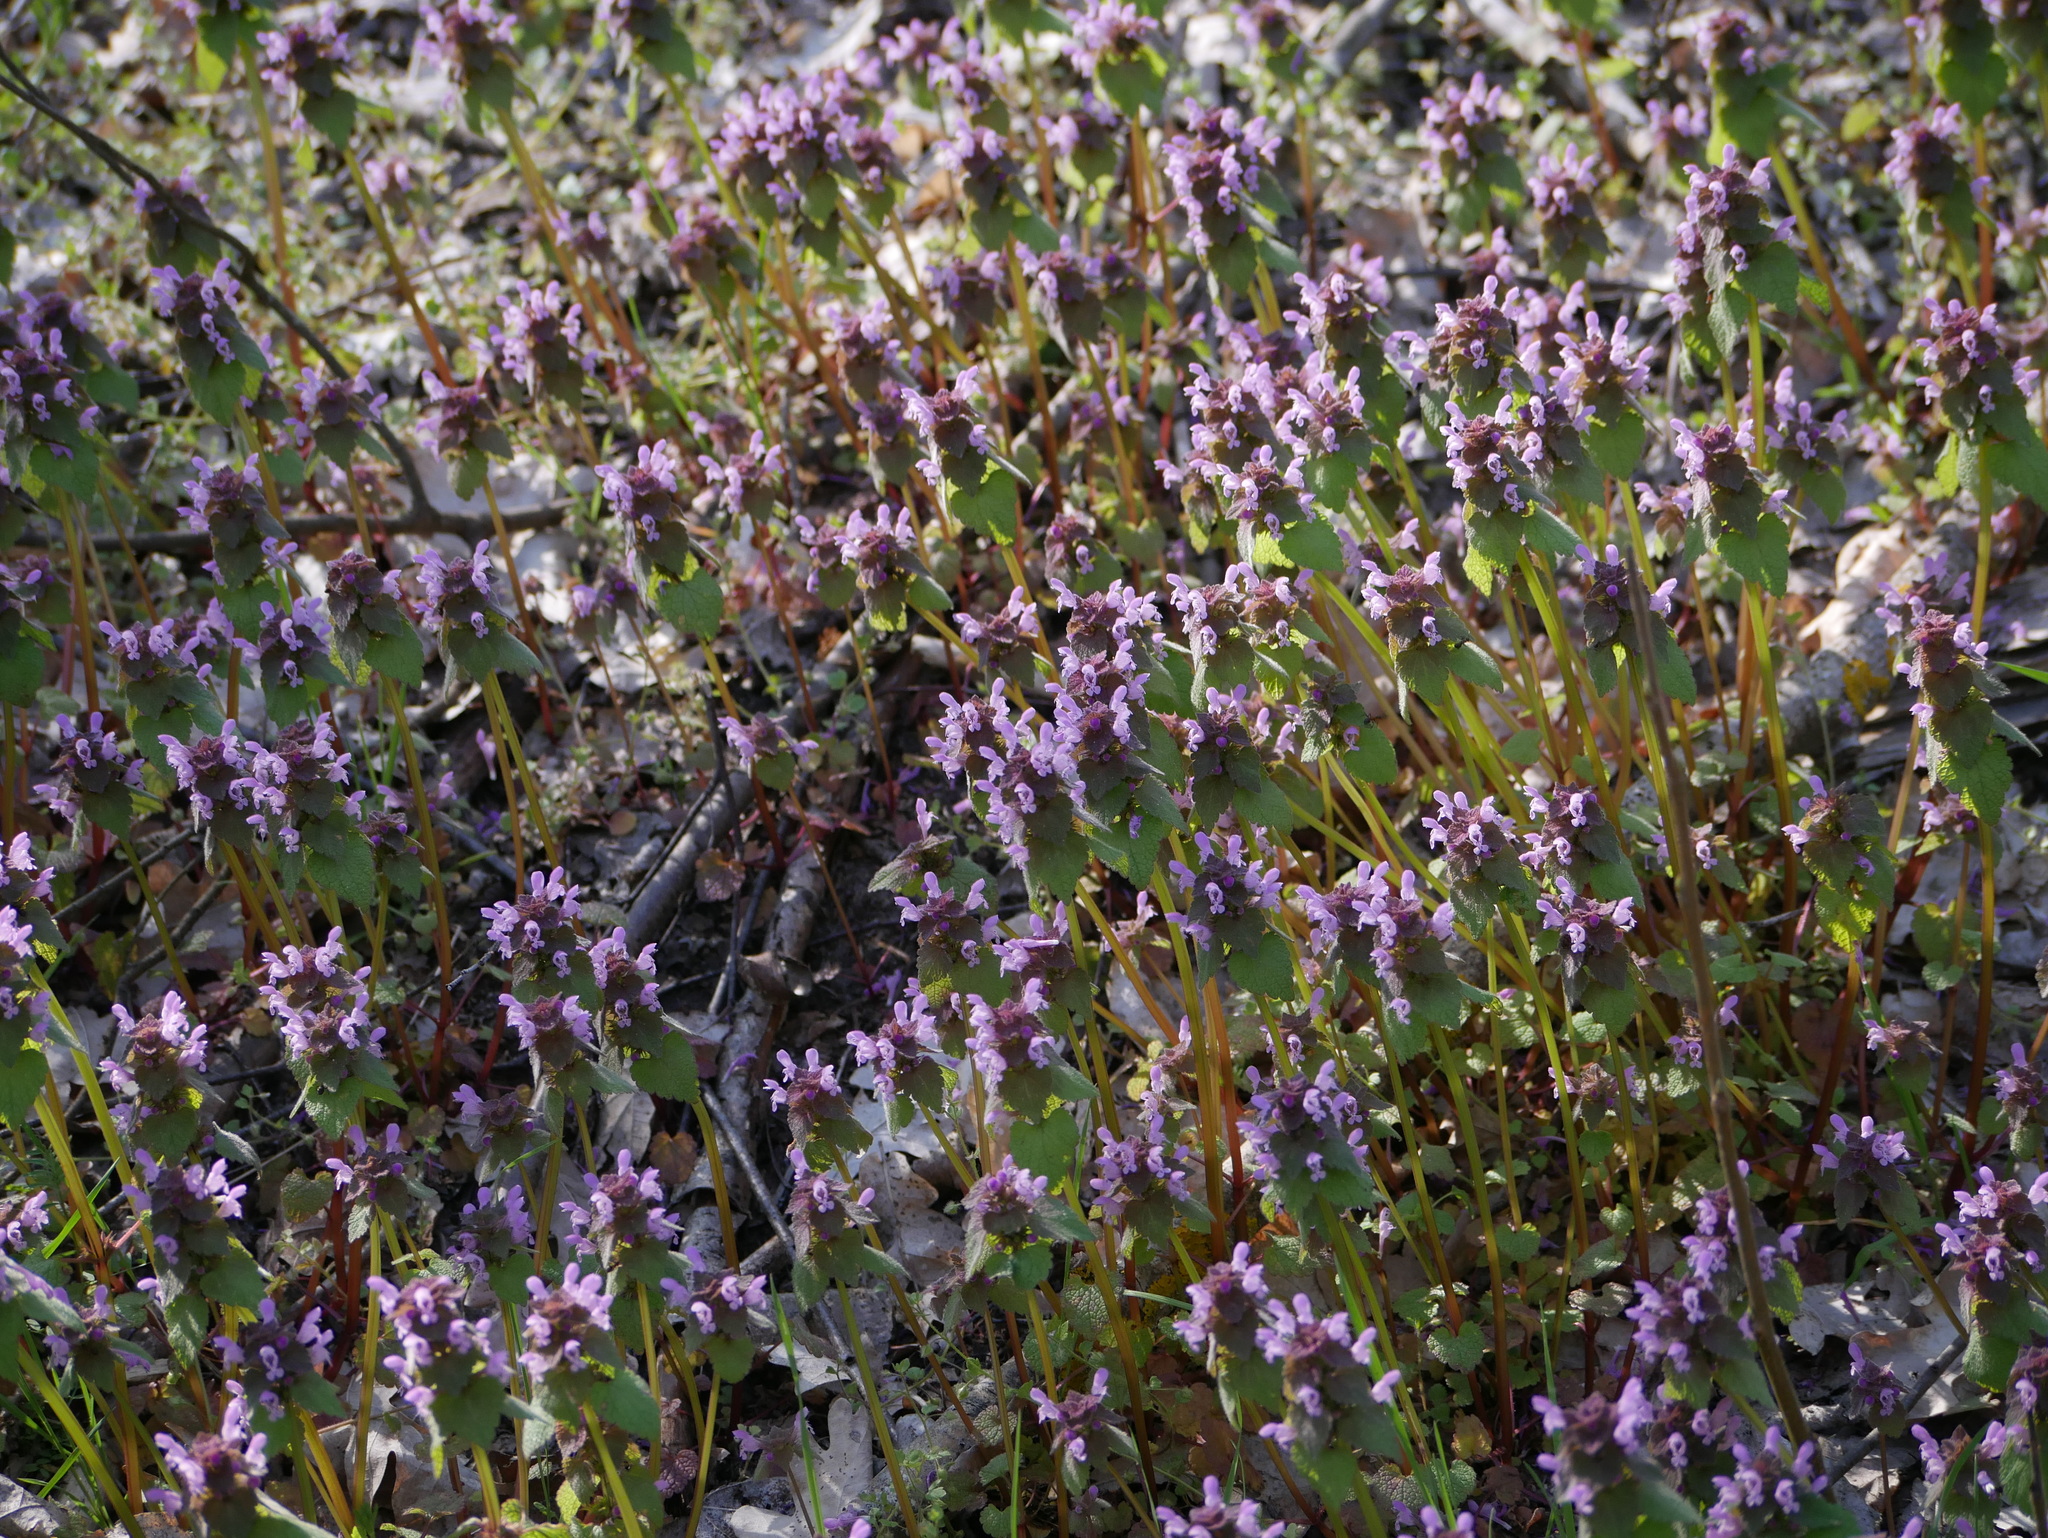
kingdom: Plantae
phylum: Tracheophyta
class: Magnoliopsida
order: Lamiales
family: Lamiaceae
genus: Lamium
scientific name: Lamium purpureum
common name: Red dead-nettle
